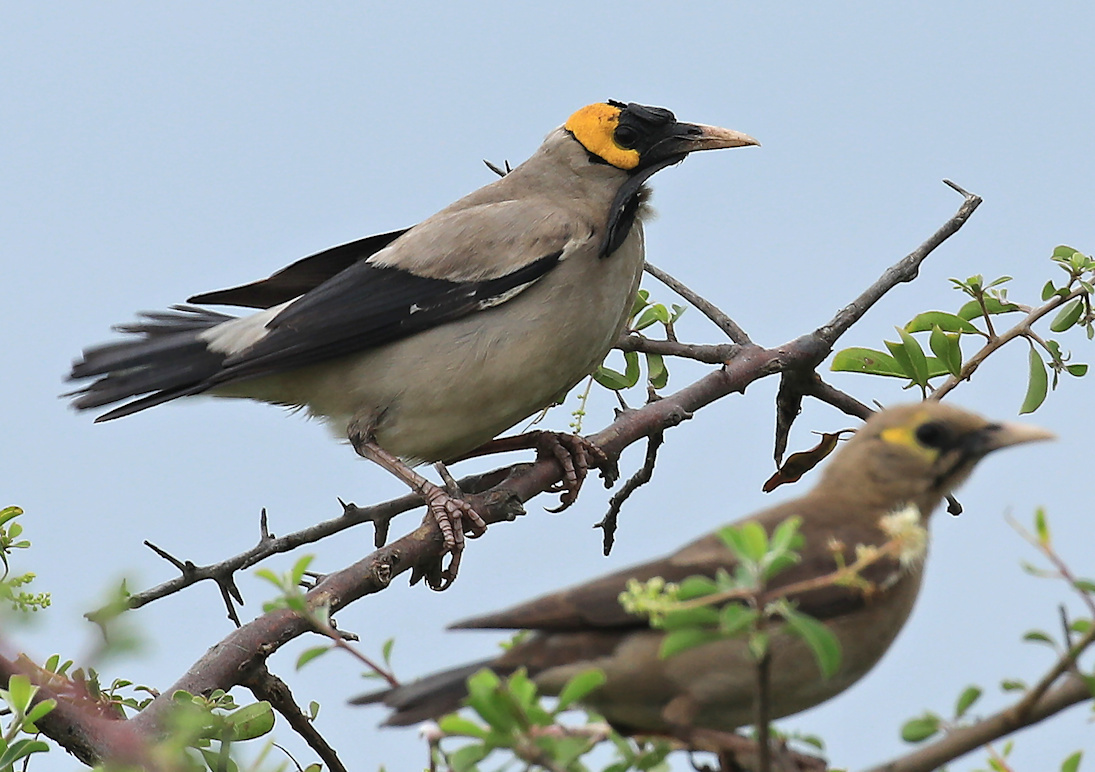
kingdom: Animalia
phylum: Chordata
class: Aves
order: Passeriformes
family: Sturnidae
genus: Creatophora
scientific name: Creatophora cinerea
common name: Wattled starling
